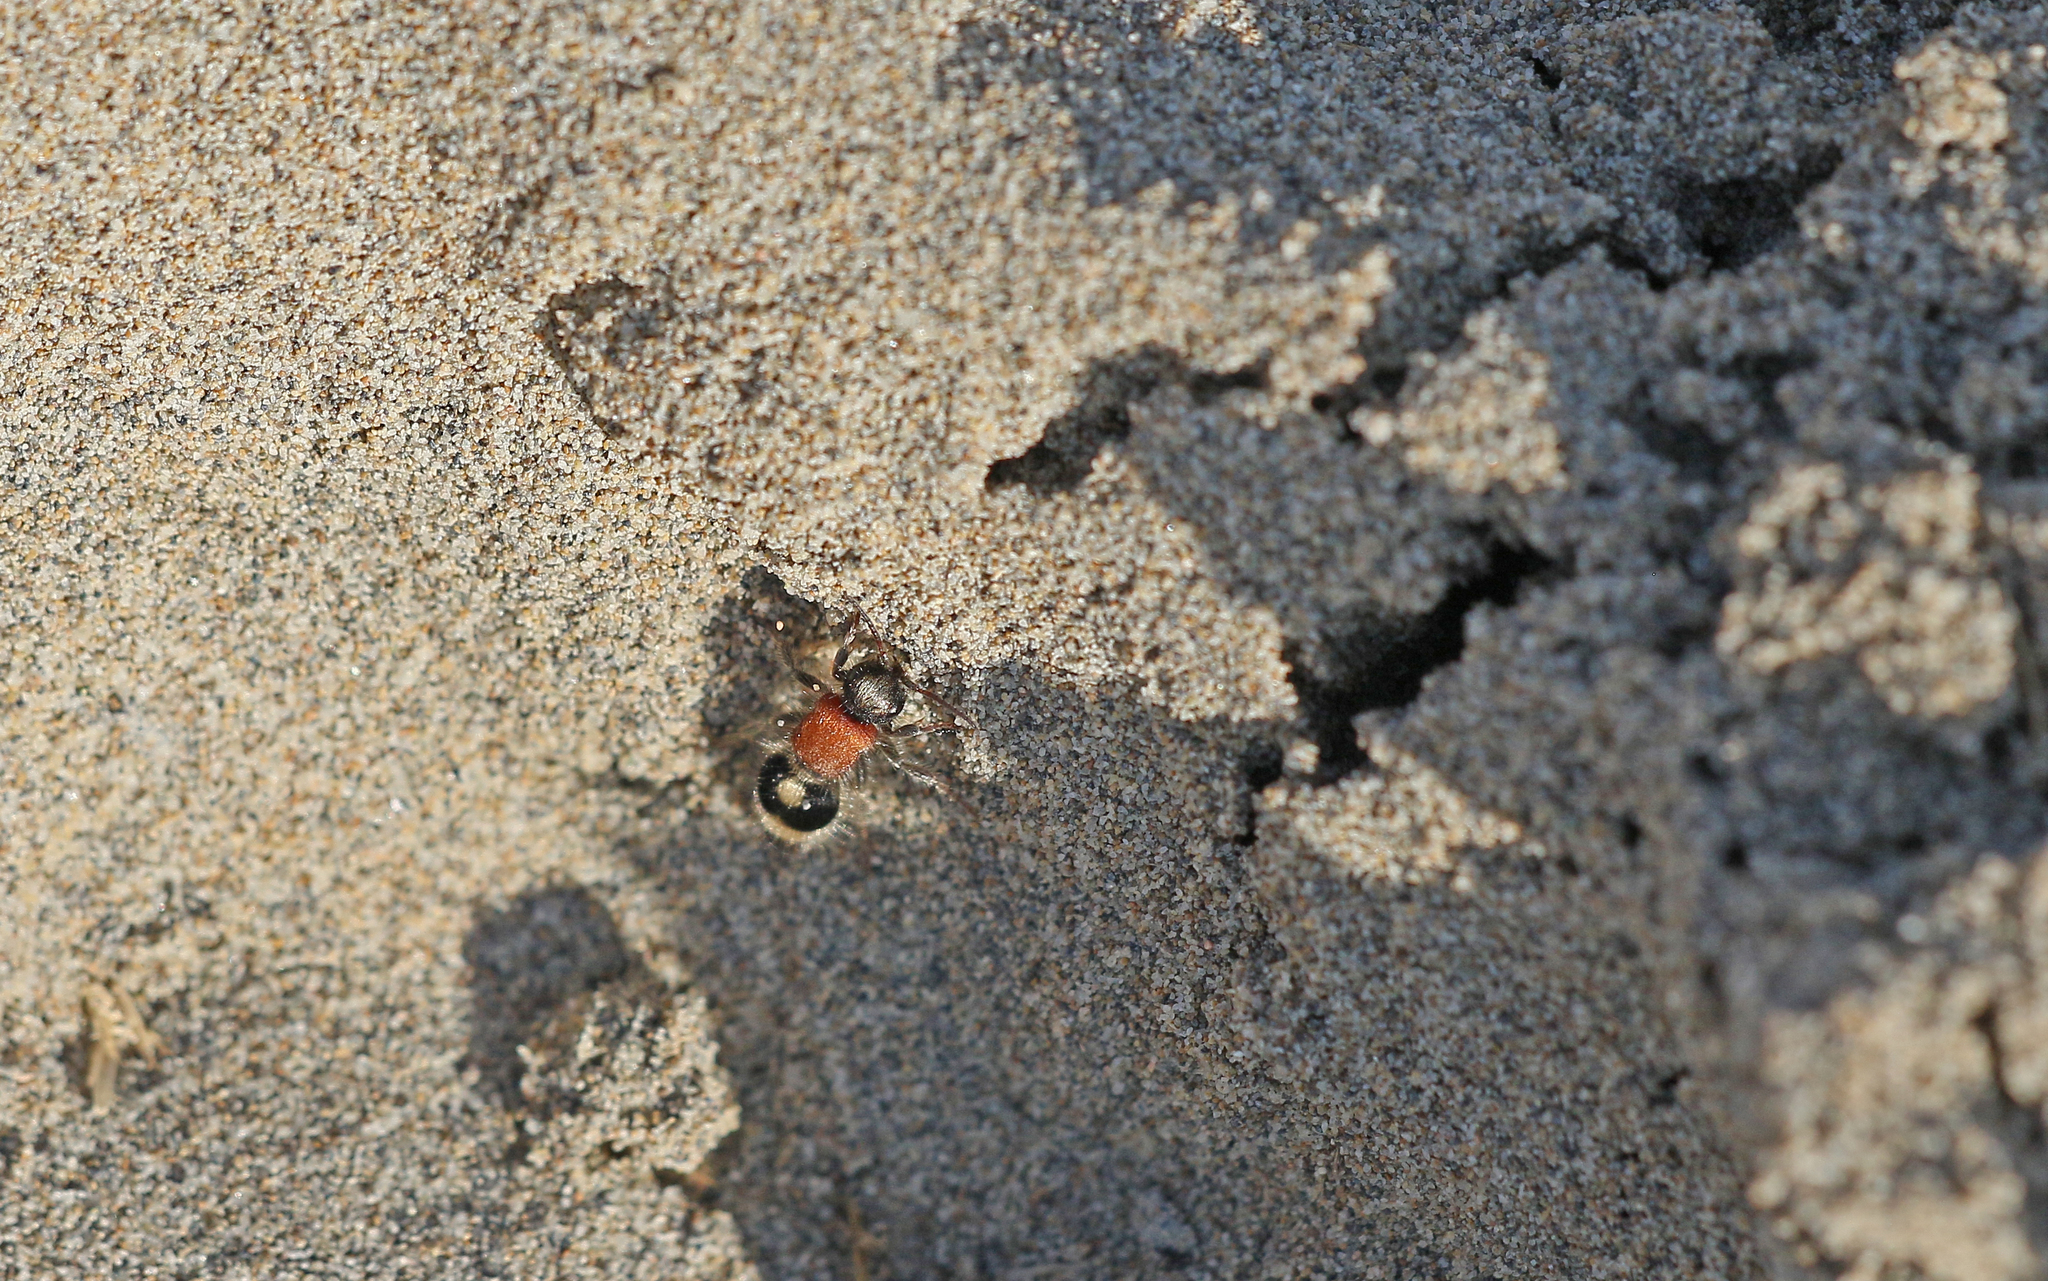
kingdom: Animalia
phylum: Arthropoda
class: Insecta
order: Hymenoptera
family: Mutillidae
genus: Nemka
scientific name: Nemka viduata
